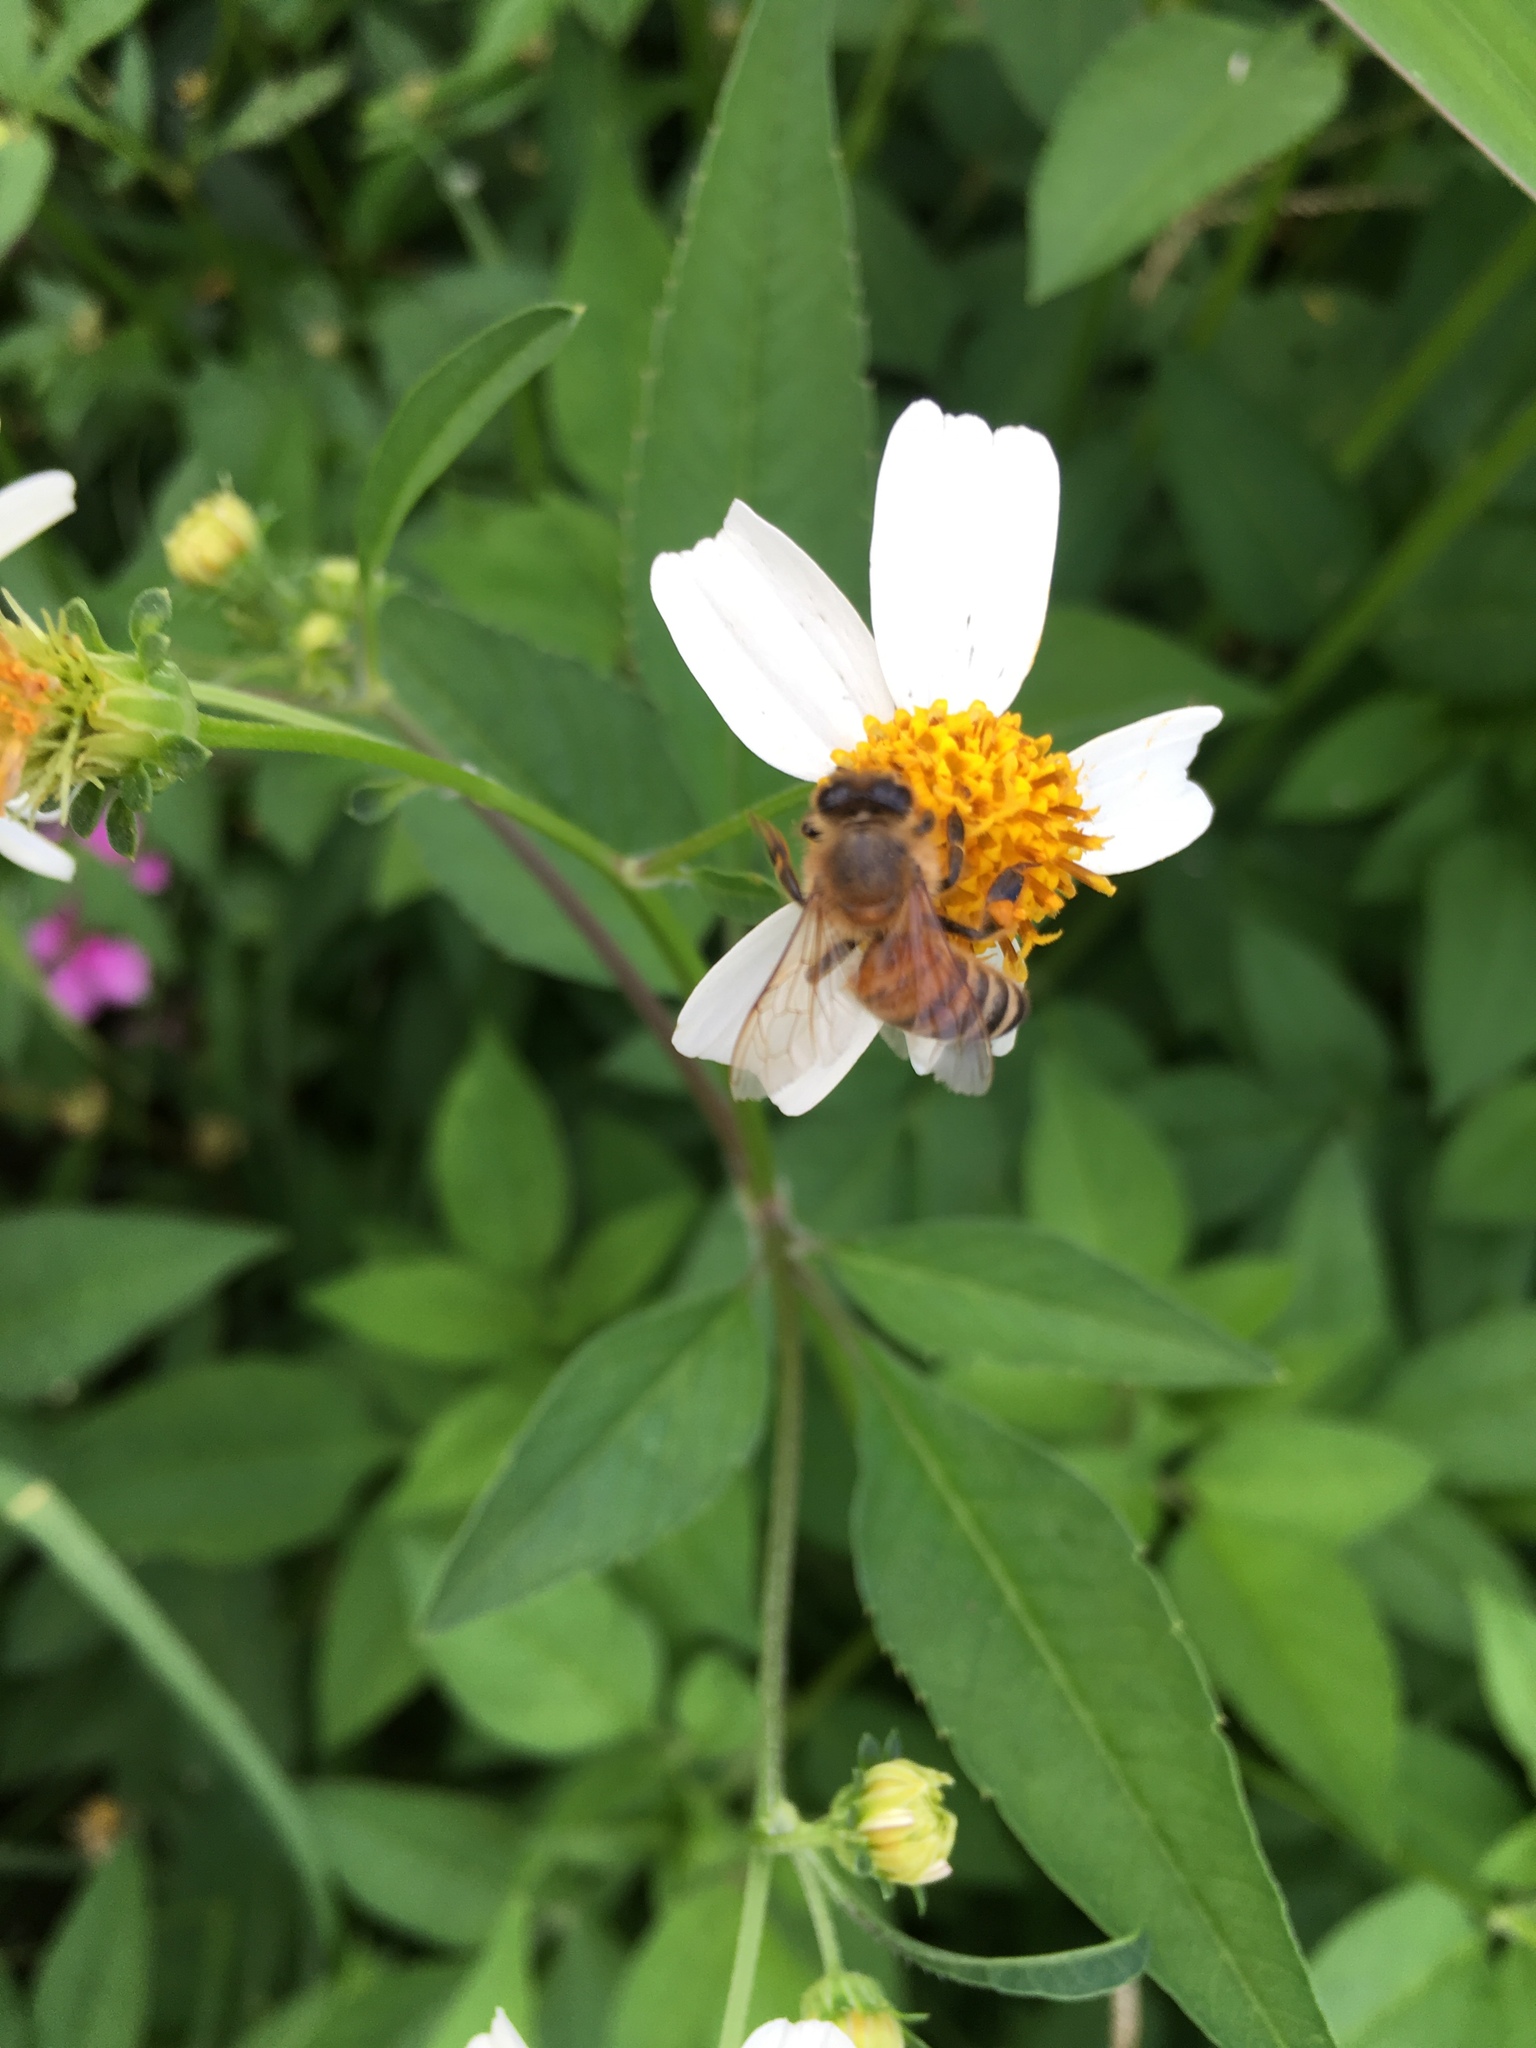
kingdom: Animalia
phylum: Arthropoda
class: Insecta
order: Hymenoptera
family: Apidae
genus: Apis
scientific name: Apis mellifera
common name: Honey bee
